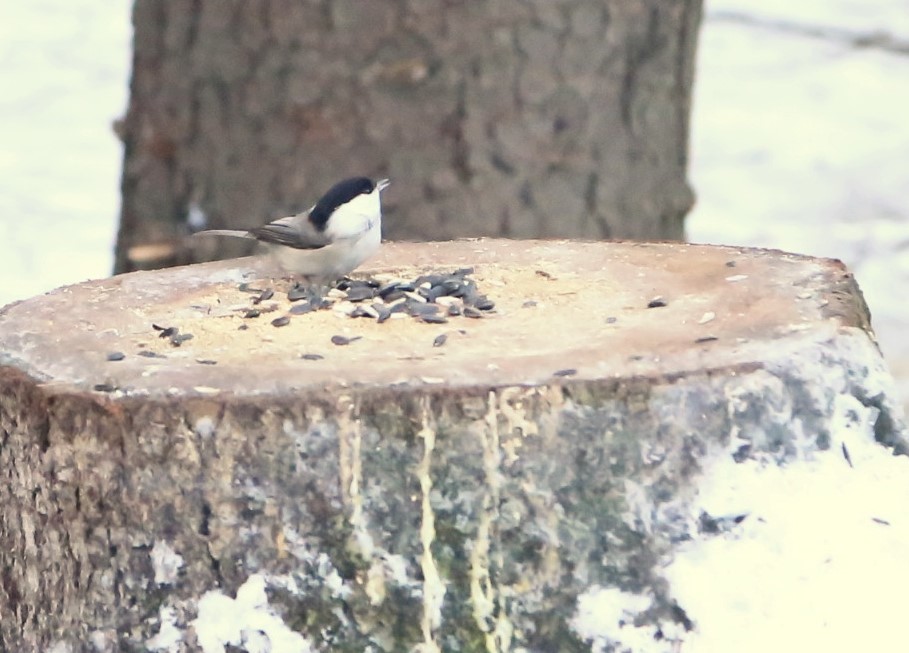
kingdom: Animalia
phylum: Chordata
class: Aves
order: Passeriformes
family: Paridae
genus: Poecile
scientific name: Poecile montanus
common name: Willow tit
